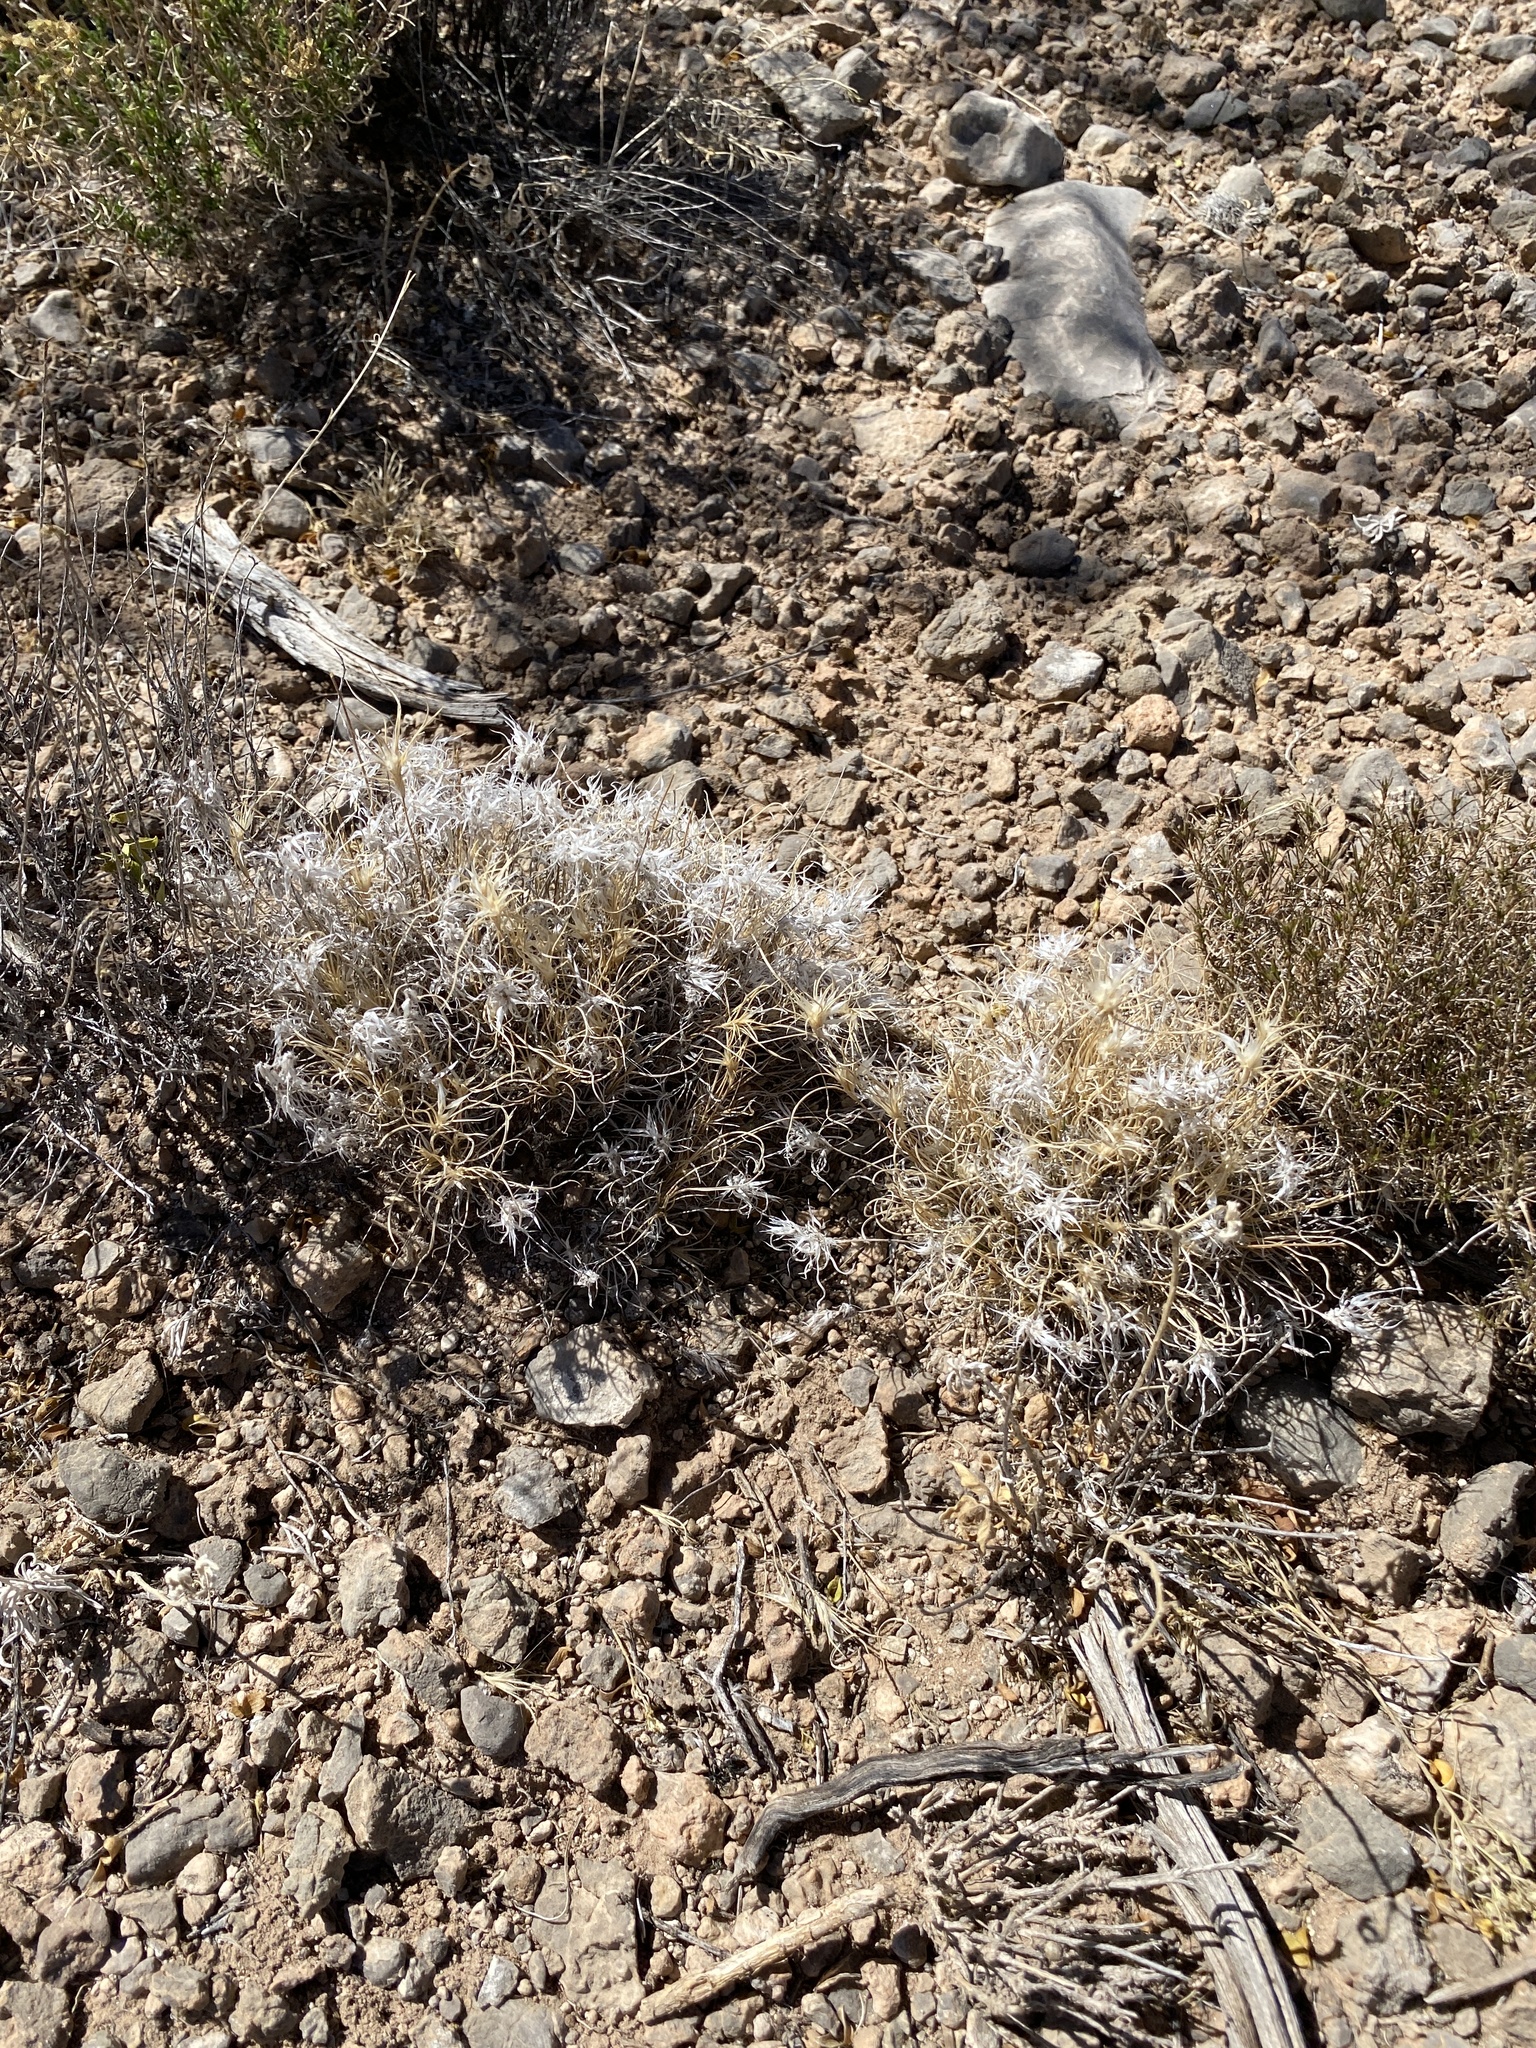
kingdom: Plantae
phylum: Tracheophyta
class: Liliopsida
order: Poales
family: Poaceae
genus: Dasyochloa
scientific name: Dasyochloa pulchella
